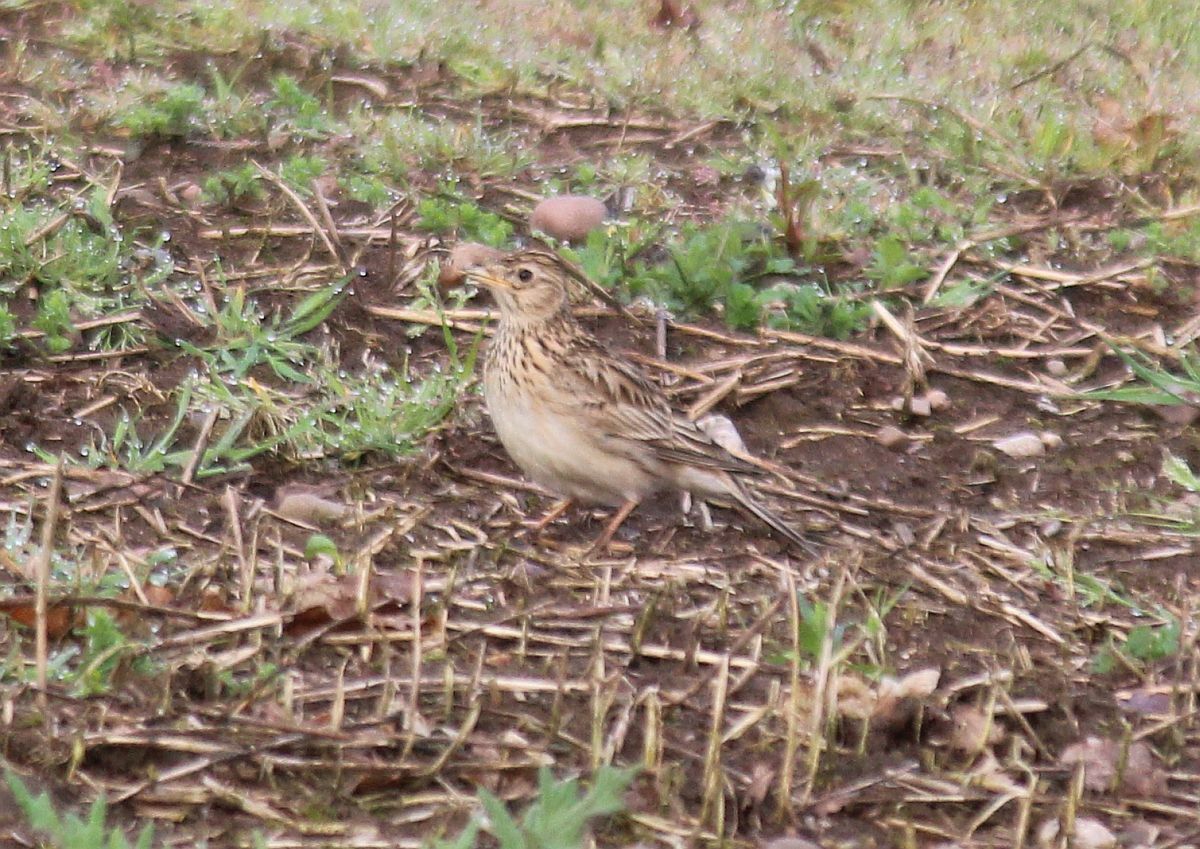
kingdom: Animalia
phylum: Chordata
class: Aves
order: Passeriformes
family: Alaudidae
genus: Alauda
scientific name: Alauda arvensis
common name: Eurasian skylark
